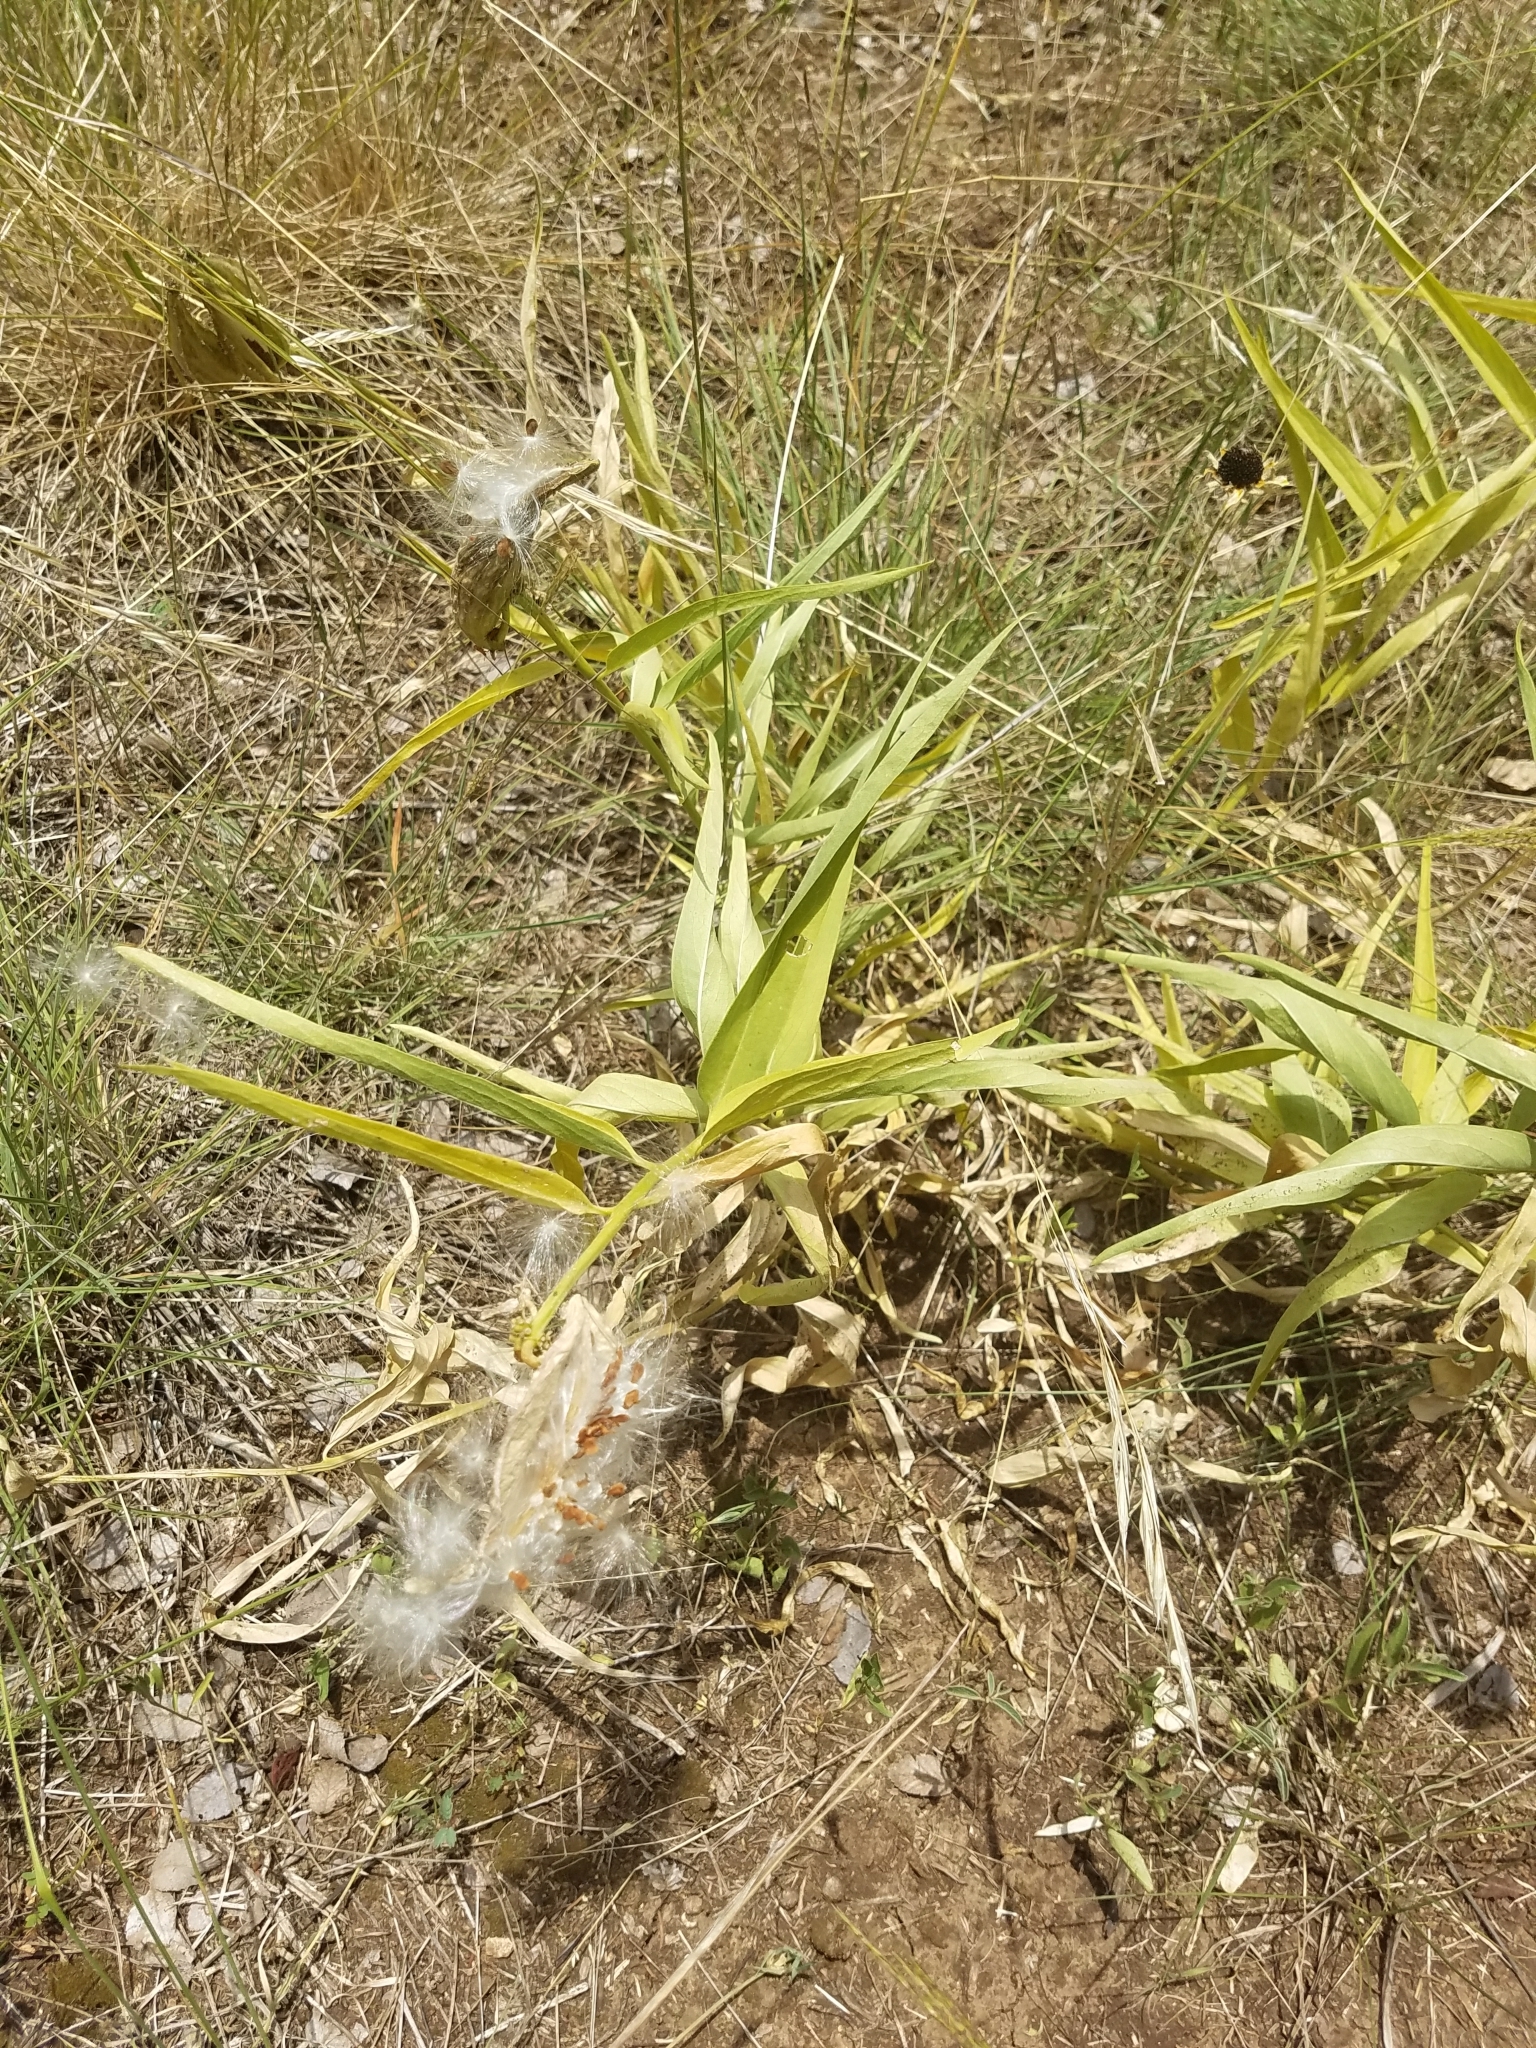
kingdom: Plantae
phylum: Tracheophyta
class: Magnoliopsida
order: Gentianales
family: Apocynaceae
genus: Asclepias
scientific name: Asclepias asperula
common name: Antelope horns
